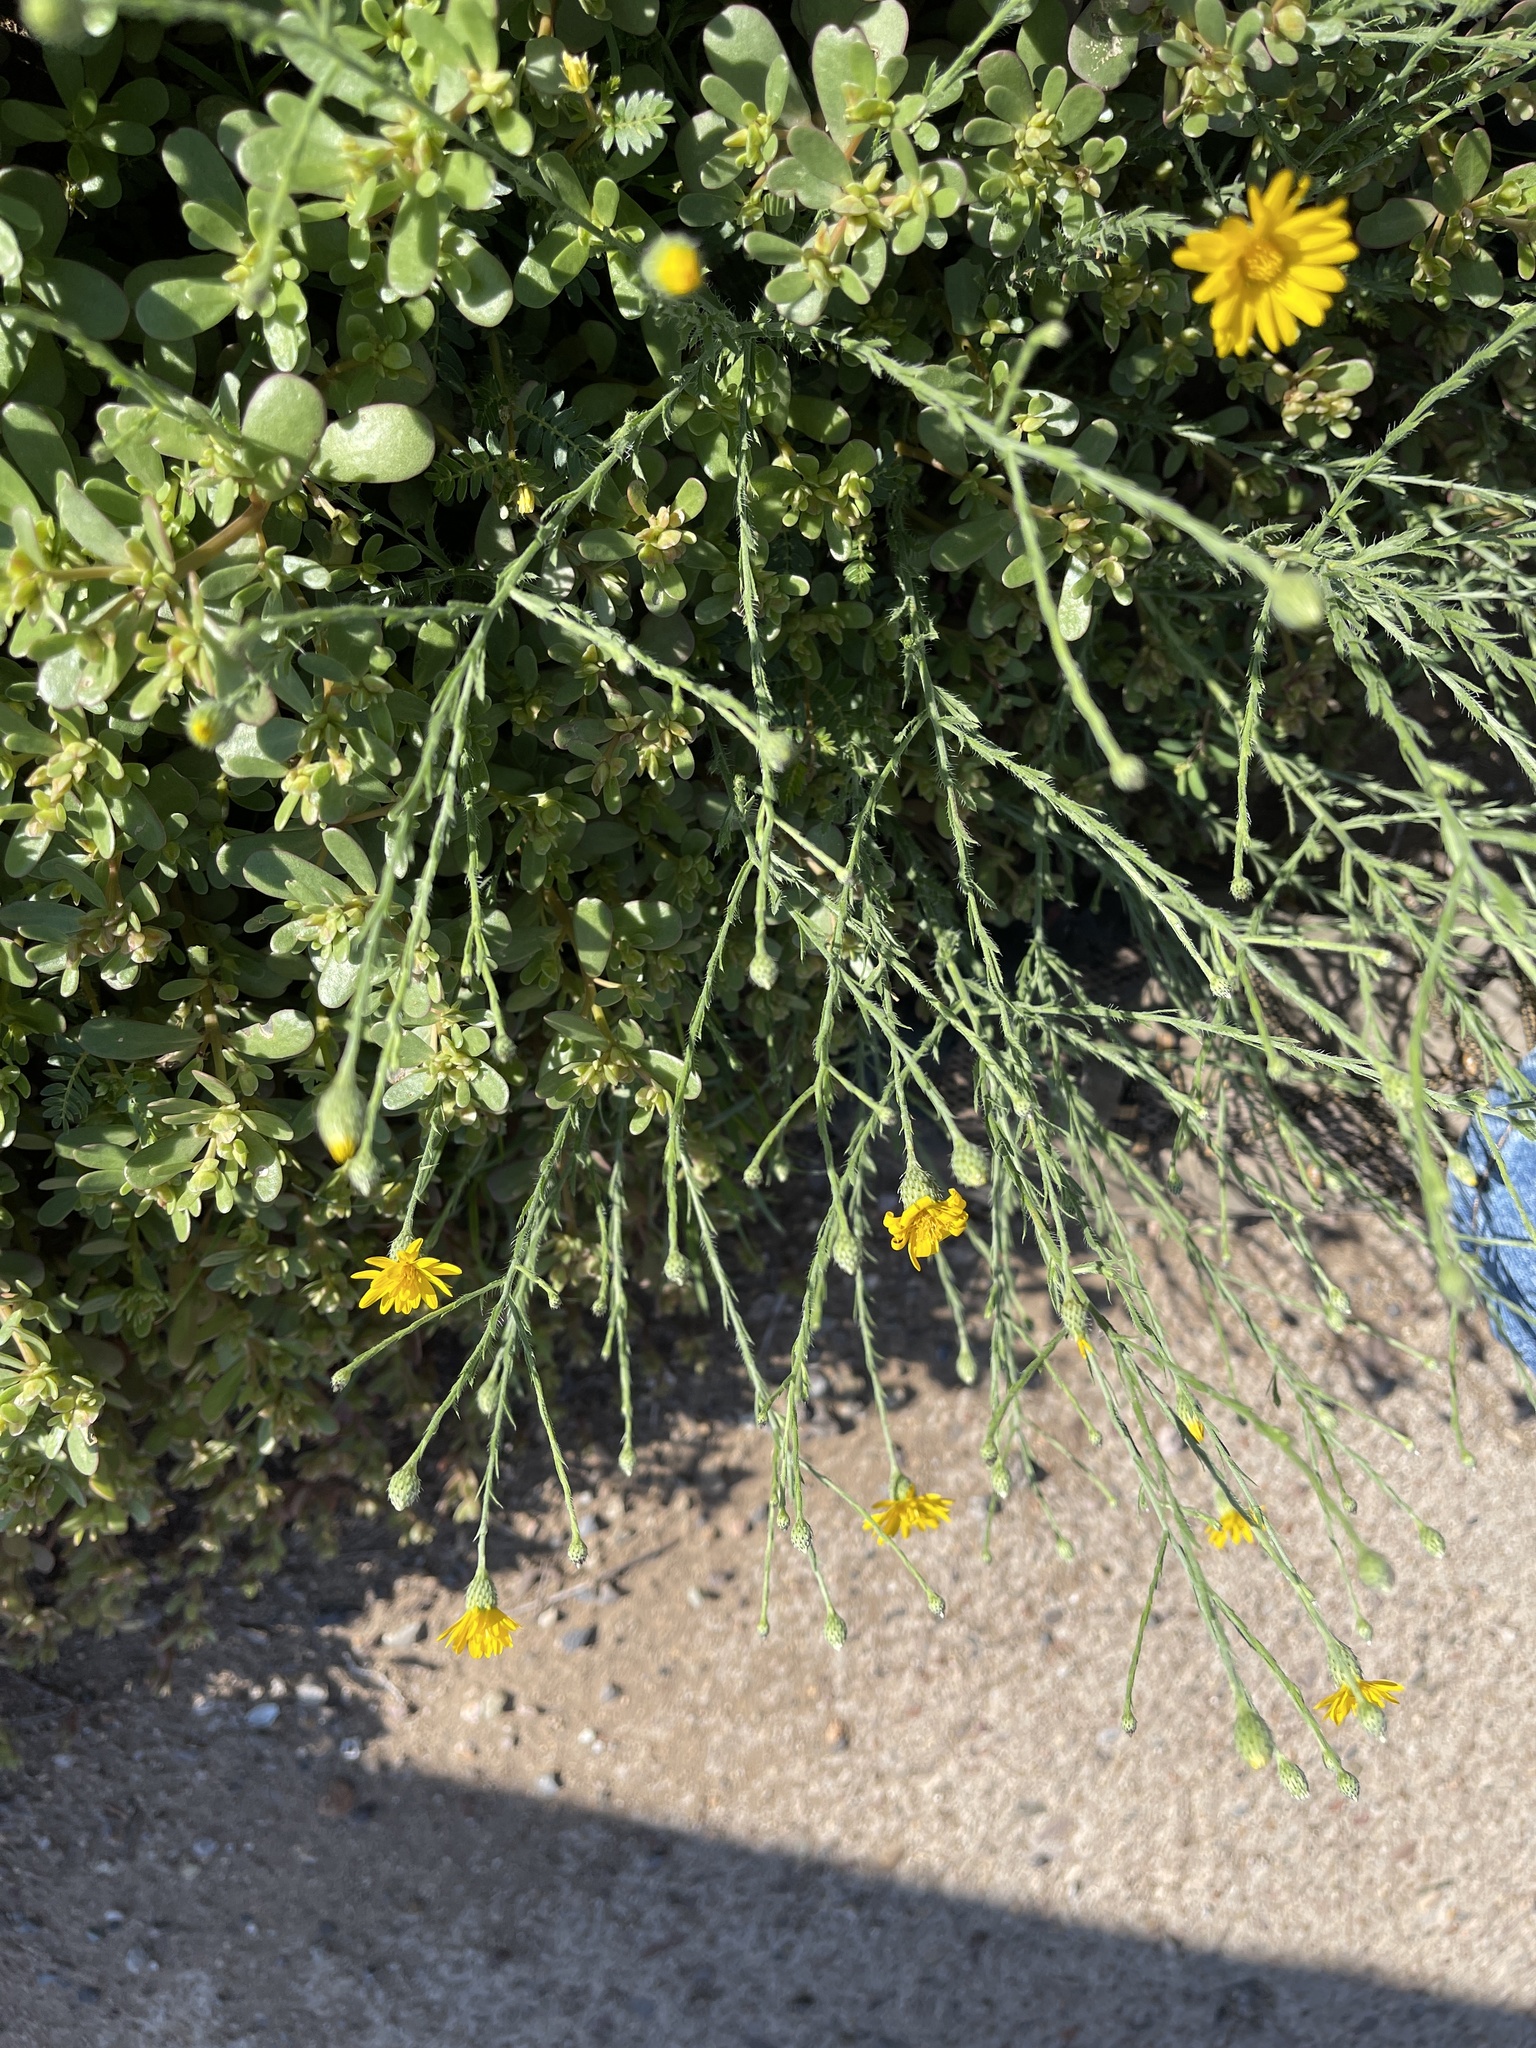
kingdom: Plantae
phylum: Tracheophyta
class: Magnoliopsida
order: Asterales
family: Asteraceae
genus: Xanthisma
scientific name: Xanthisma gracile
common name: Slender goldenweed
